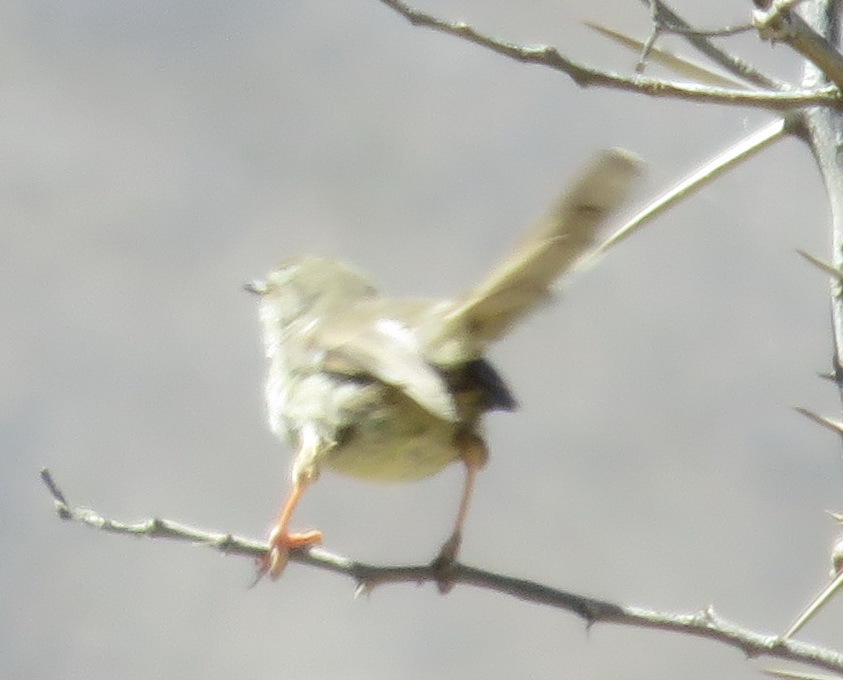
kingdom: Animalia
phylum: Chordata
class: Aves
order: Passeriformes
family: Cisticolidae
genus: Prinia
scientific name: Prinia maculosa
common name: Karoo prinia
